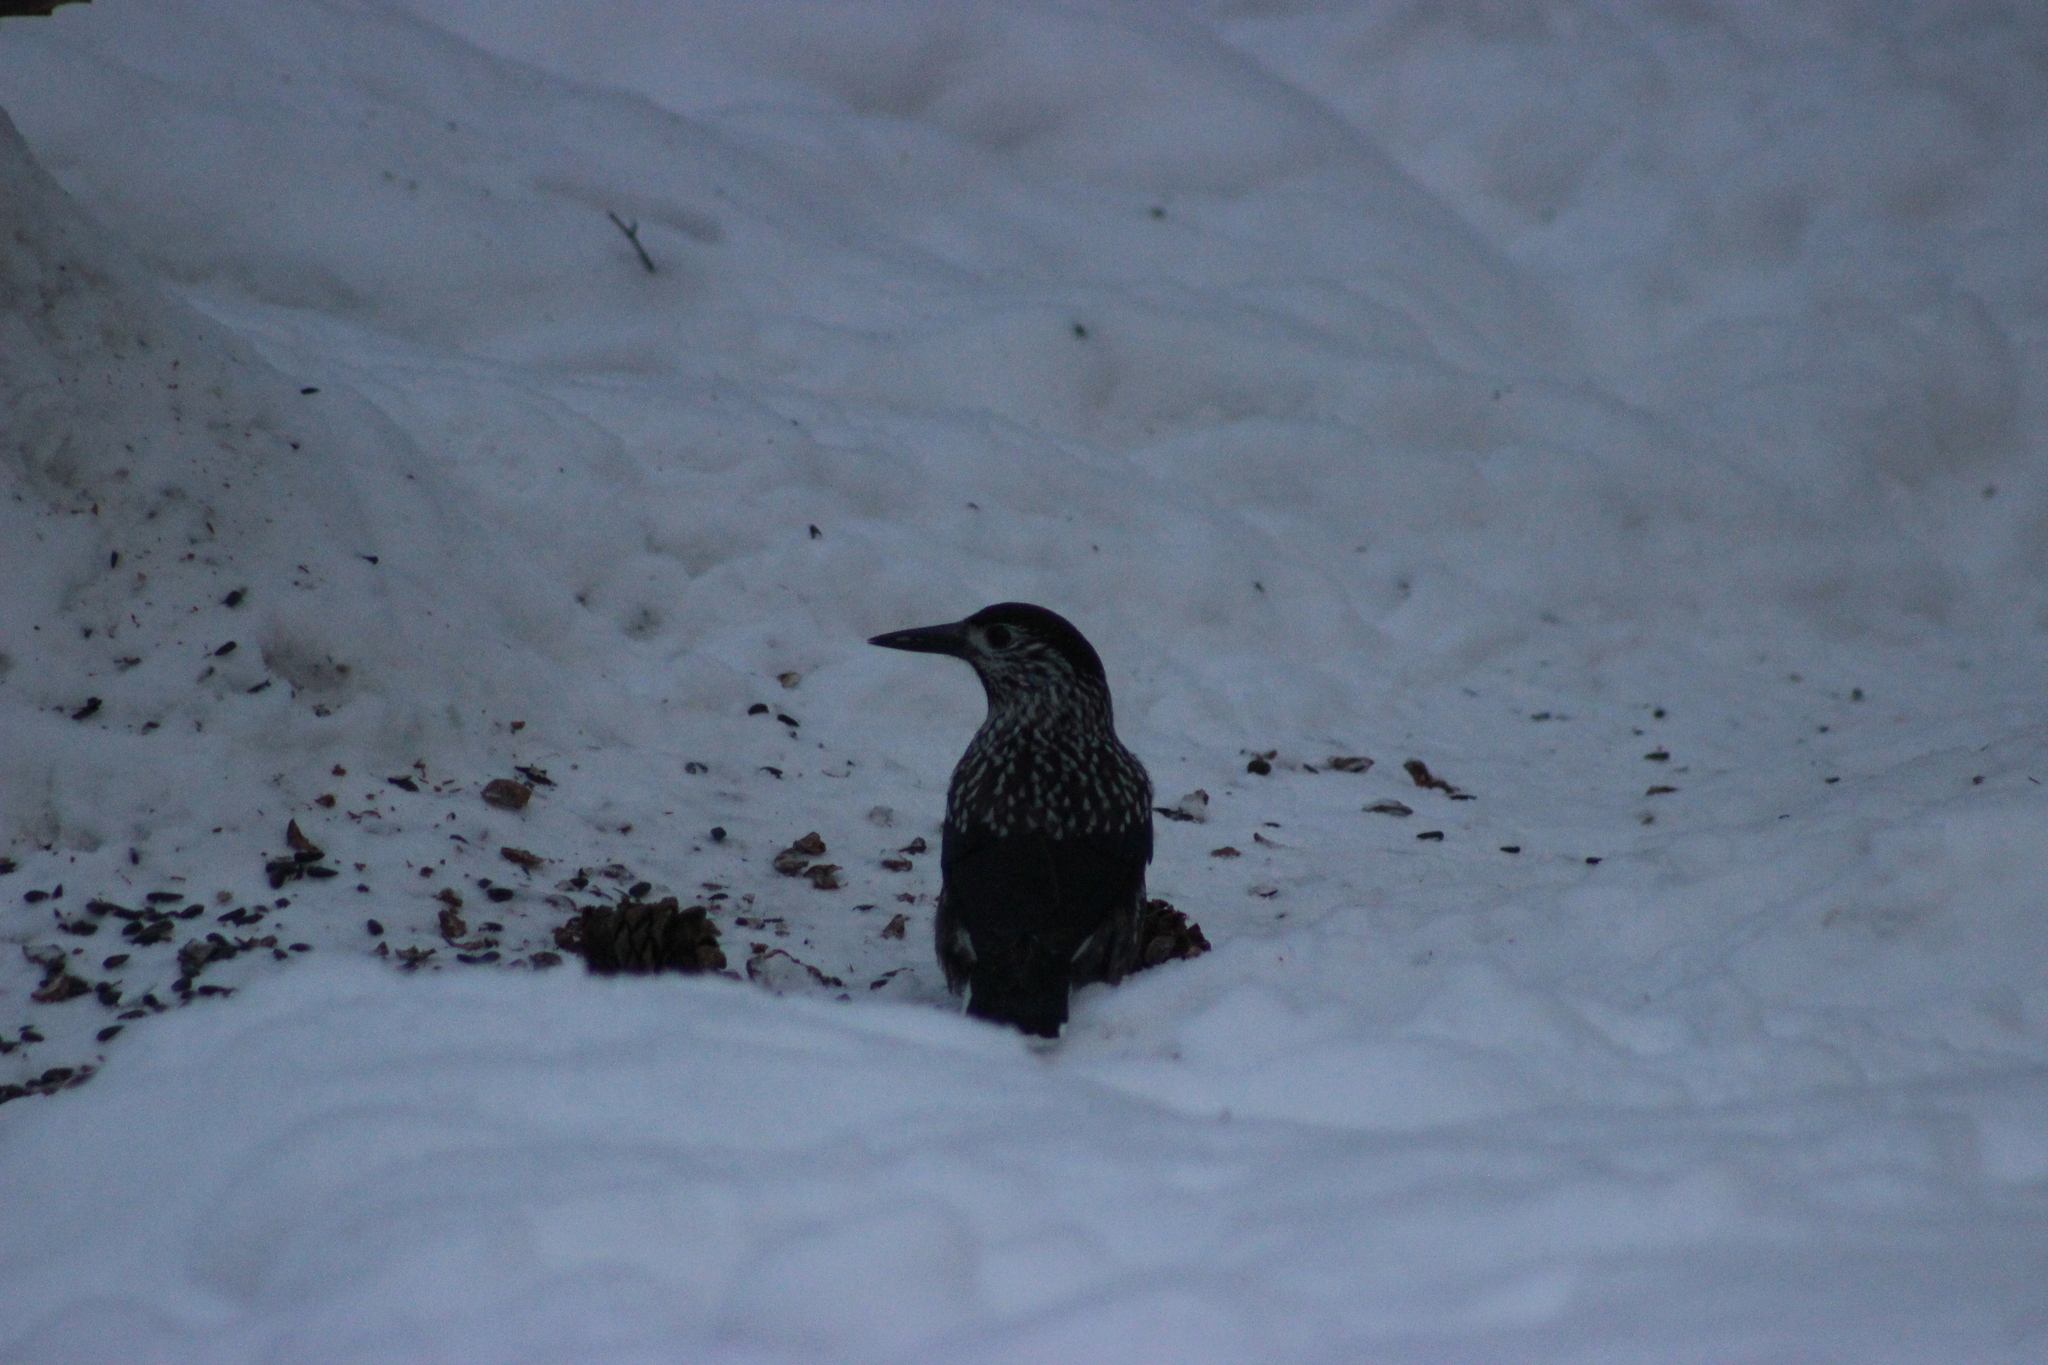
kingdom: Animalia
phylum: Chordata
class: Aves
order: Passeriformes
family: Corvidae
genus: Nucifraga
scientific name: Nucifraga caryocatactes
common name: Spotted nutcracker
